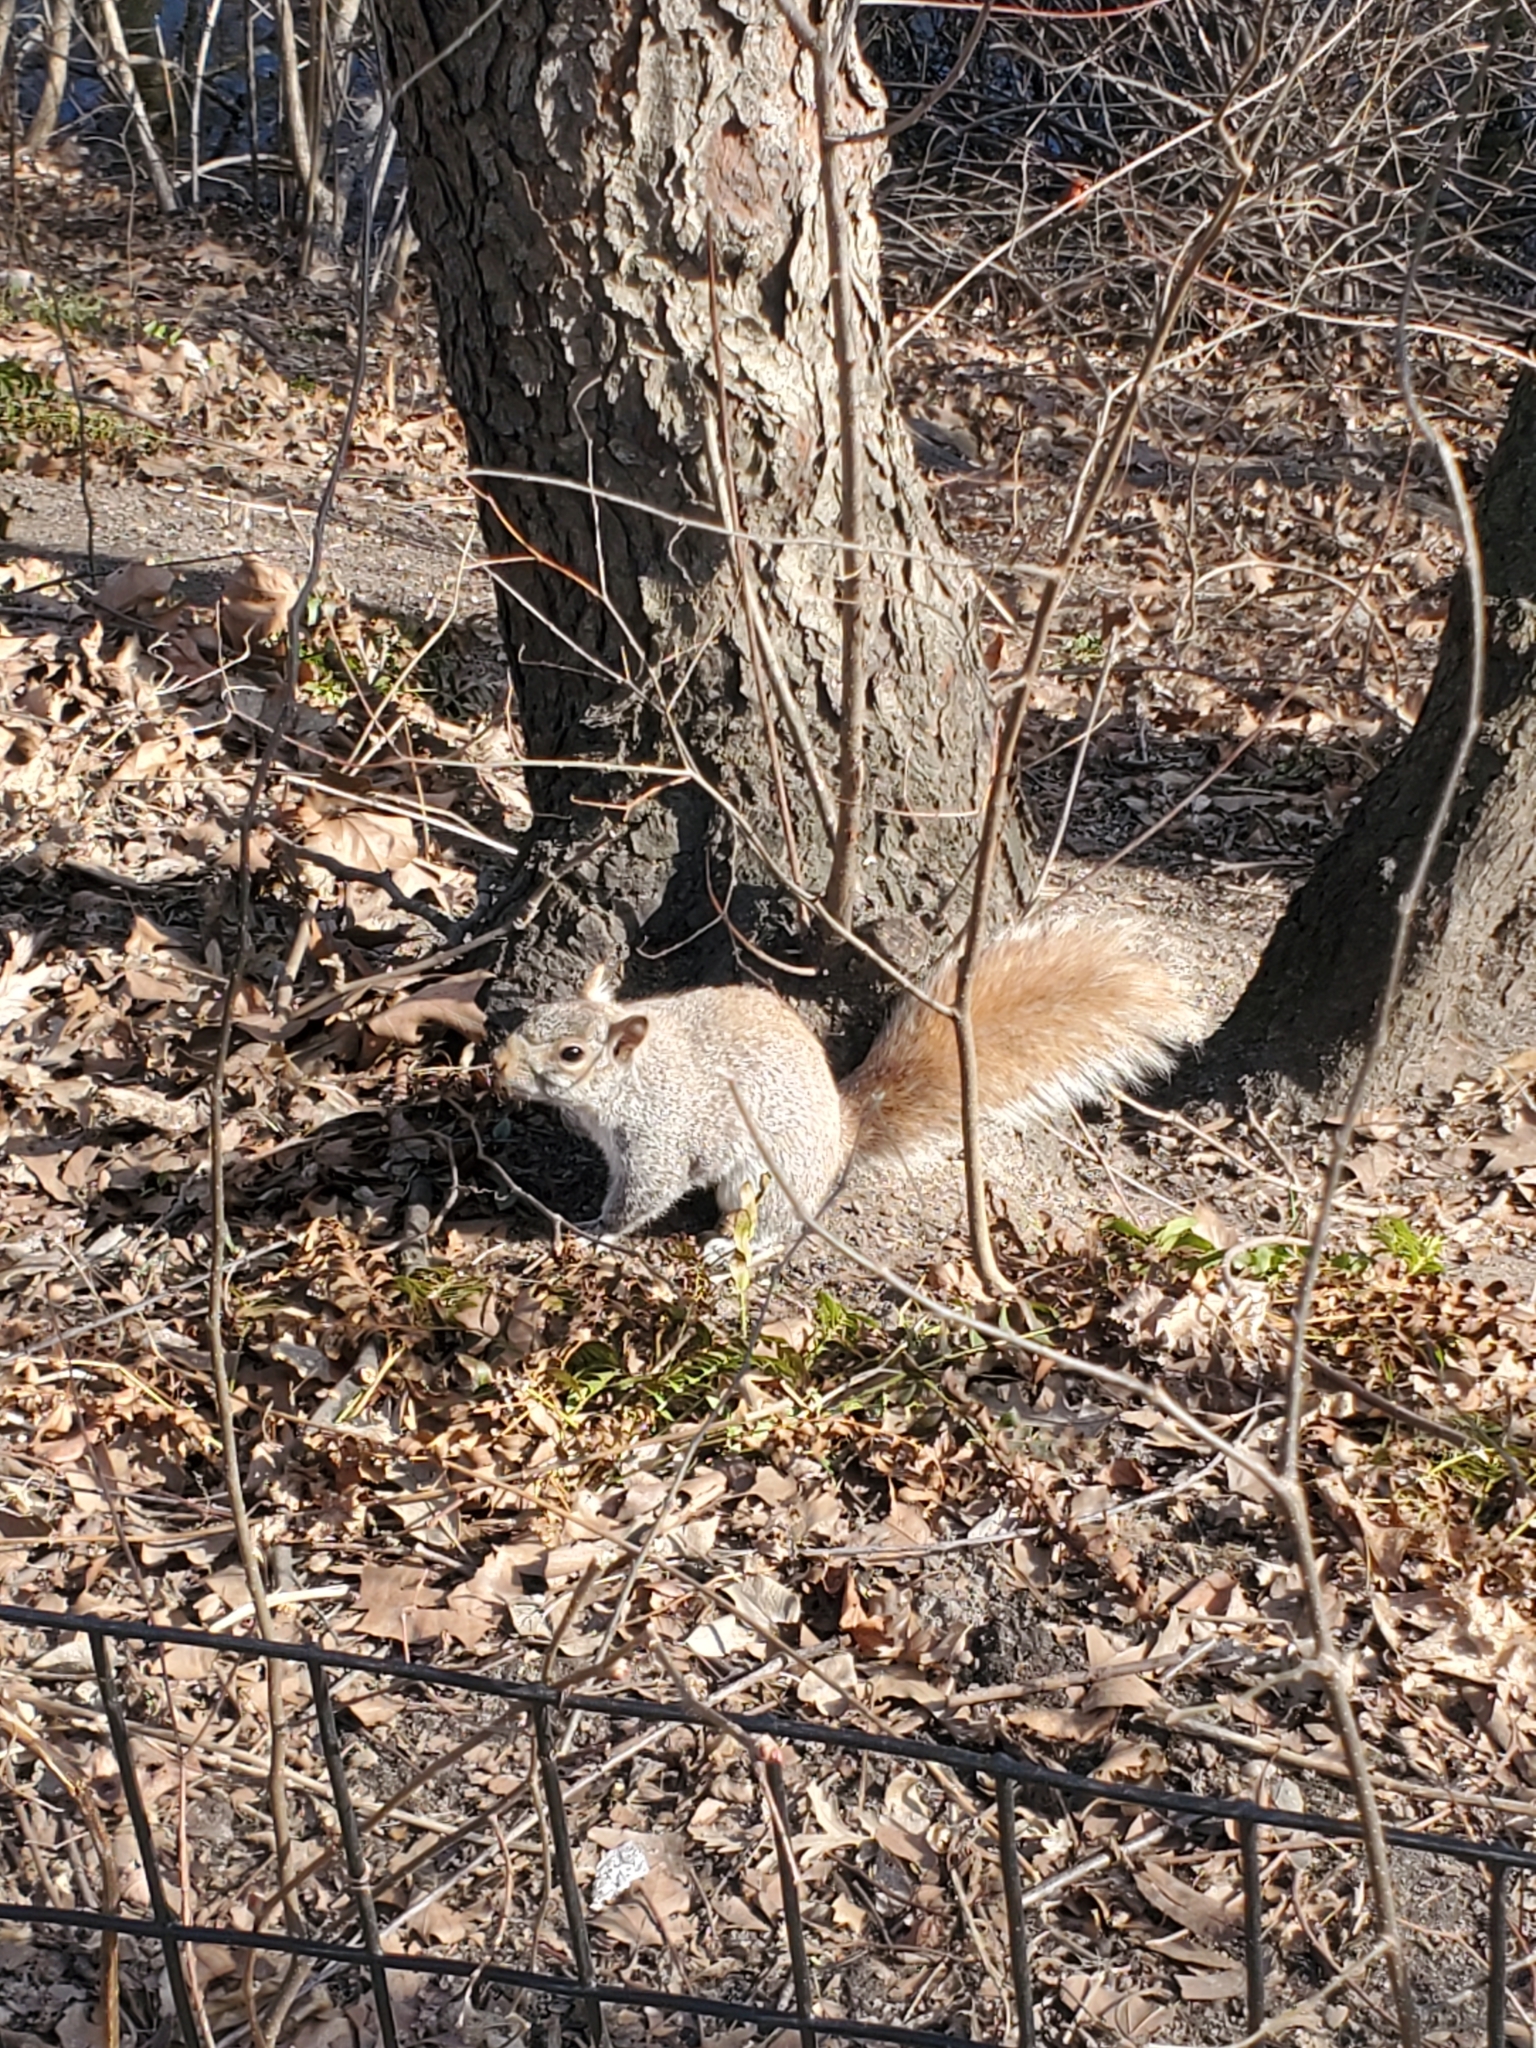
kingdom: Animalia
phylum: Chordata
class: Mammalia
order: Rodentia
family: Sciuridae
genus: Sciurus
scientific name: Sciurus carolinensis
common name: Eastern gray squirrel
